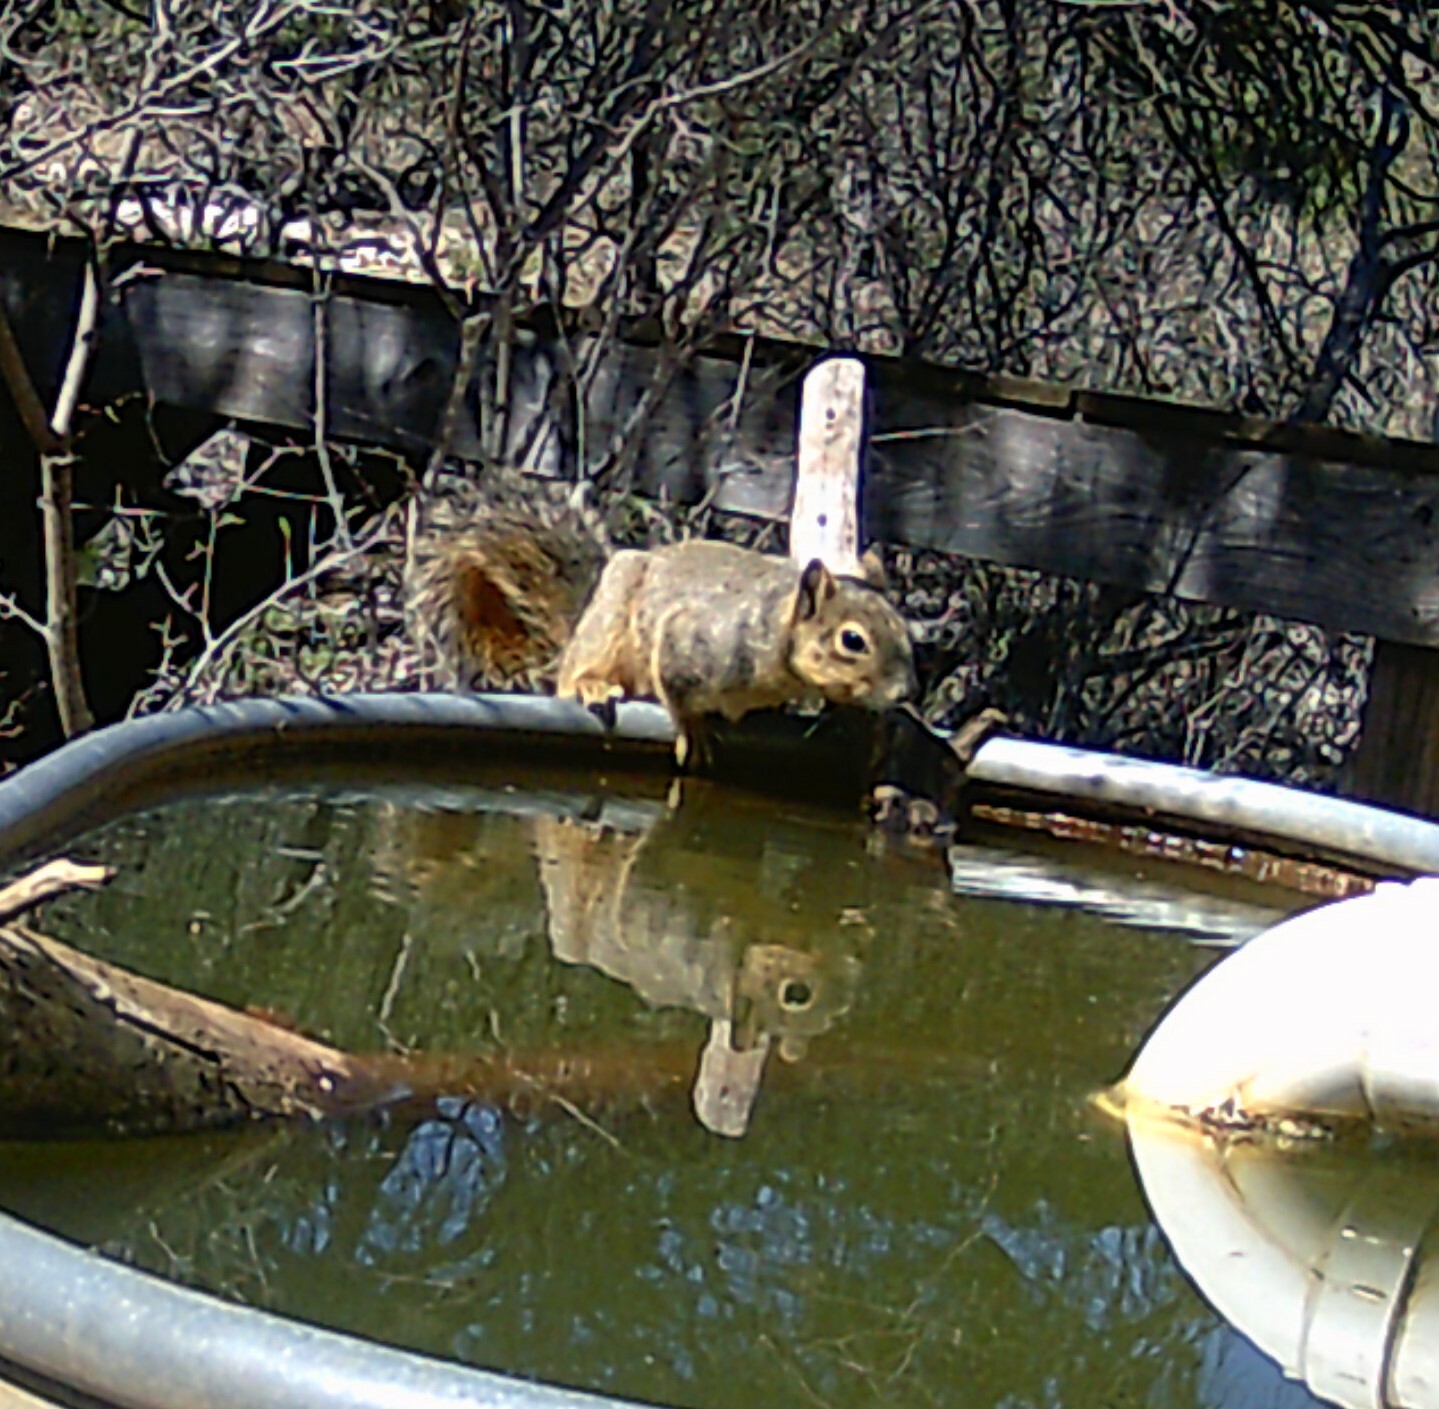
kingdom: Animalia
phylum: Chordata
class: Mammalia
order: Rodentia
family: Sciuridae
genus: Sciurus
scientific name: Sciurus niger
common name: Fox squirrel
